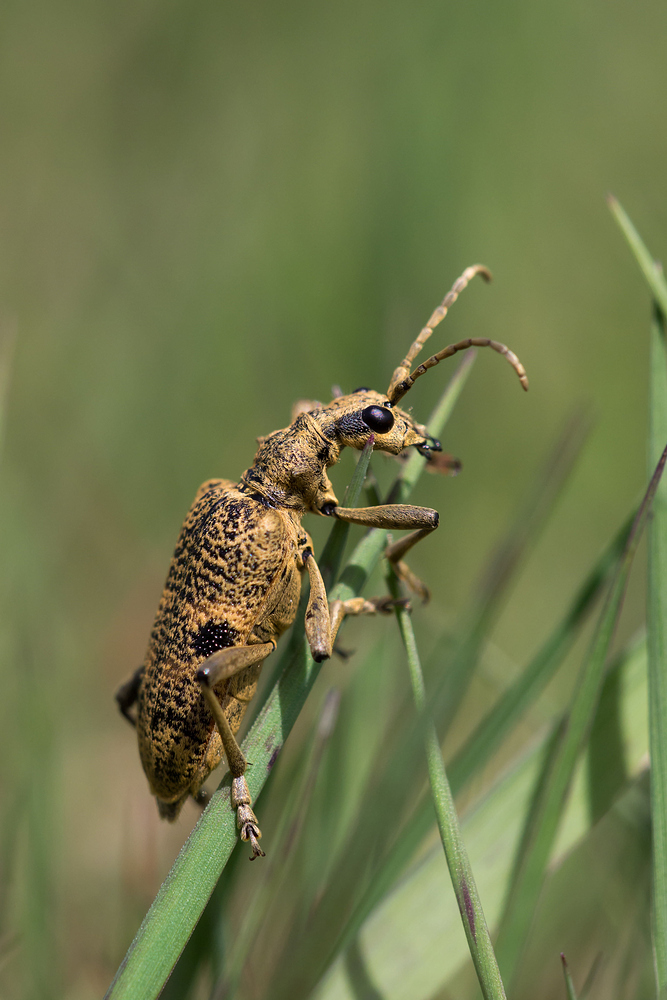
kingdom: Animalia
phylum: Arthropoda
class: Insecta
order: Coleoptera
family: Cerambycidae
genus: Rhagium
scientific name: Rhagium mordax
